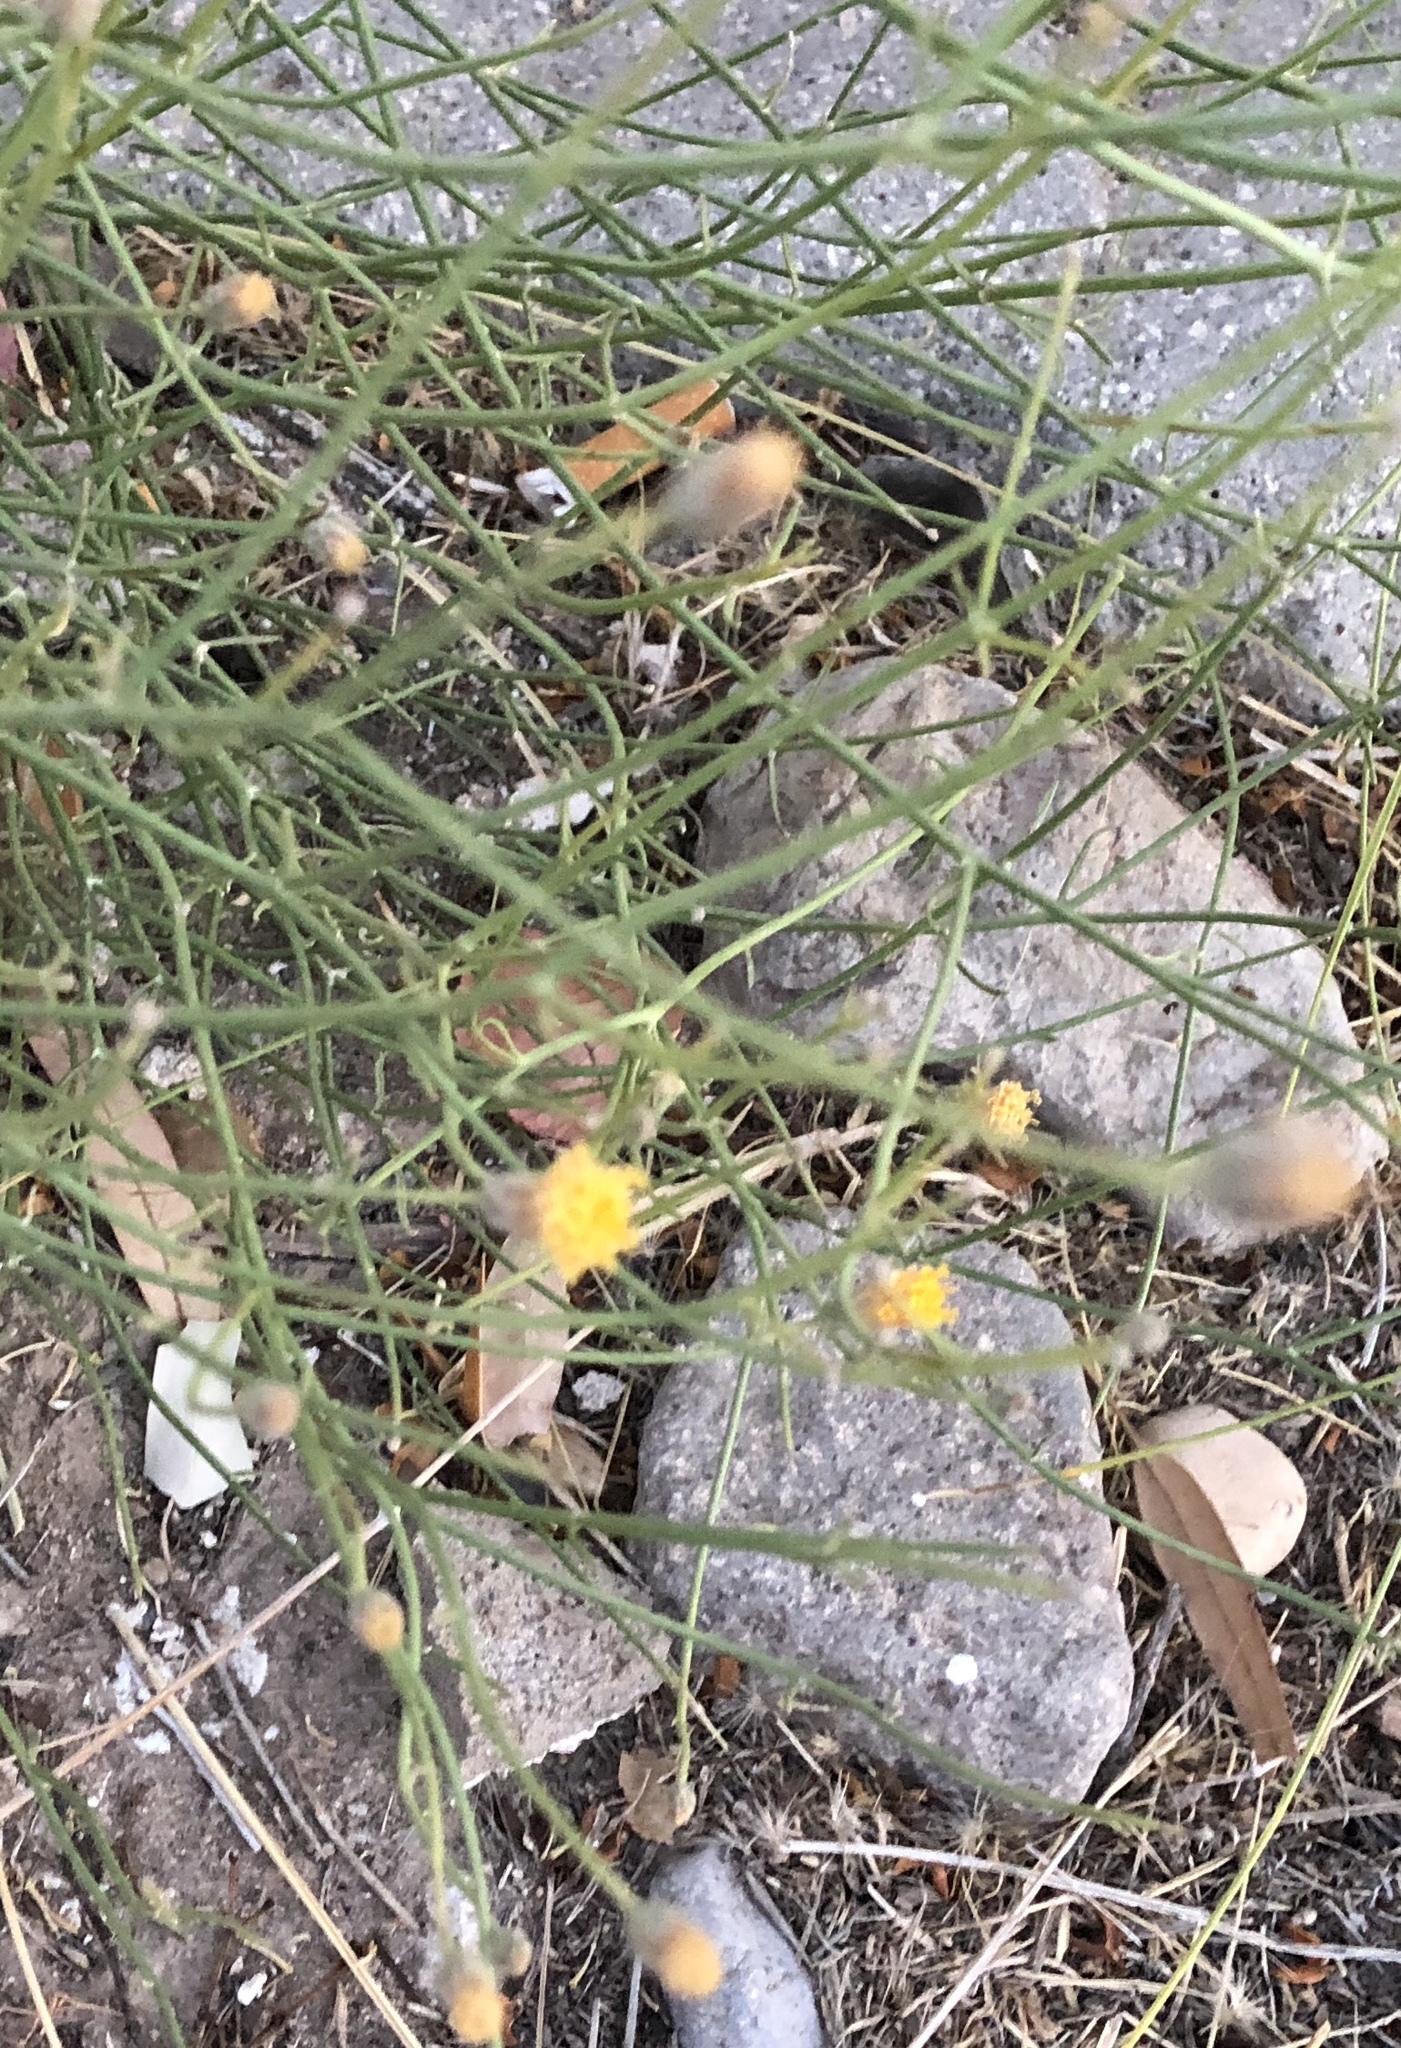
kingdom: Plantae
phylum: Tracheophyta
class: Magnoliopsida
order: Asterales
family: Asteraceae
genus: Bebbia
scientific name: Bebbia juncea
